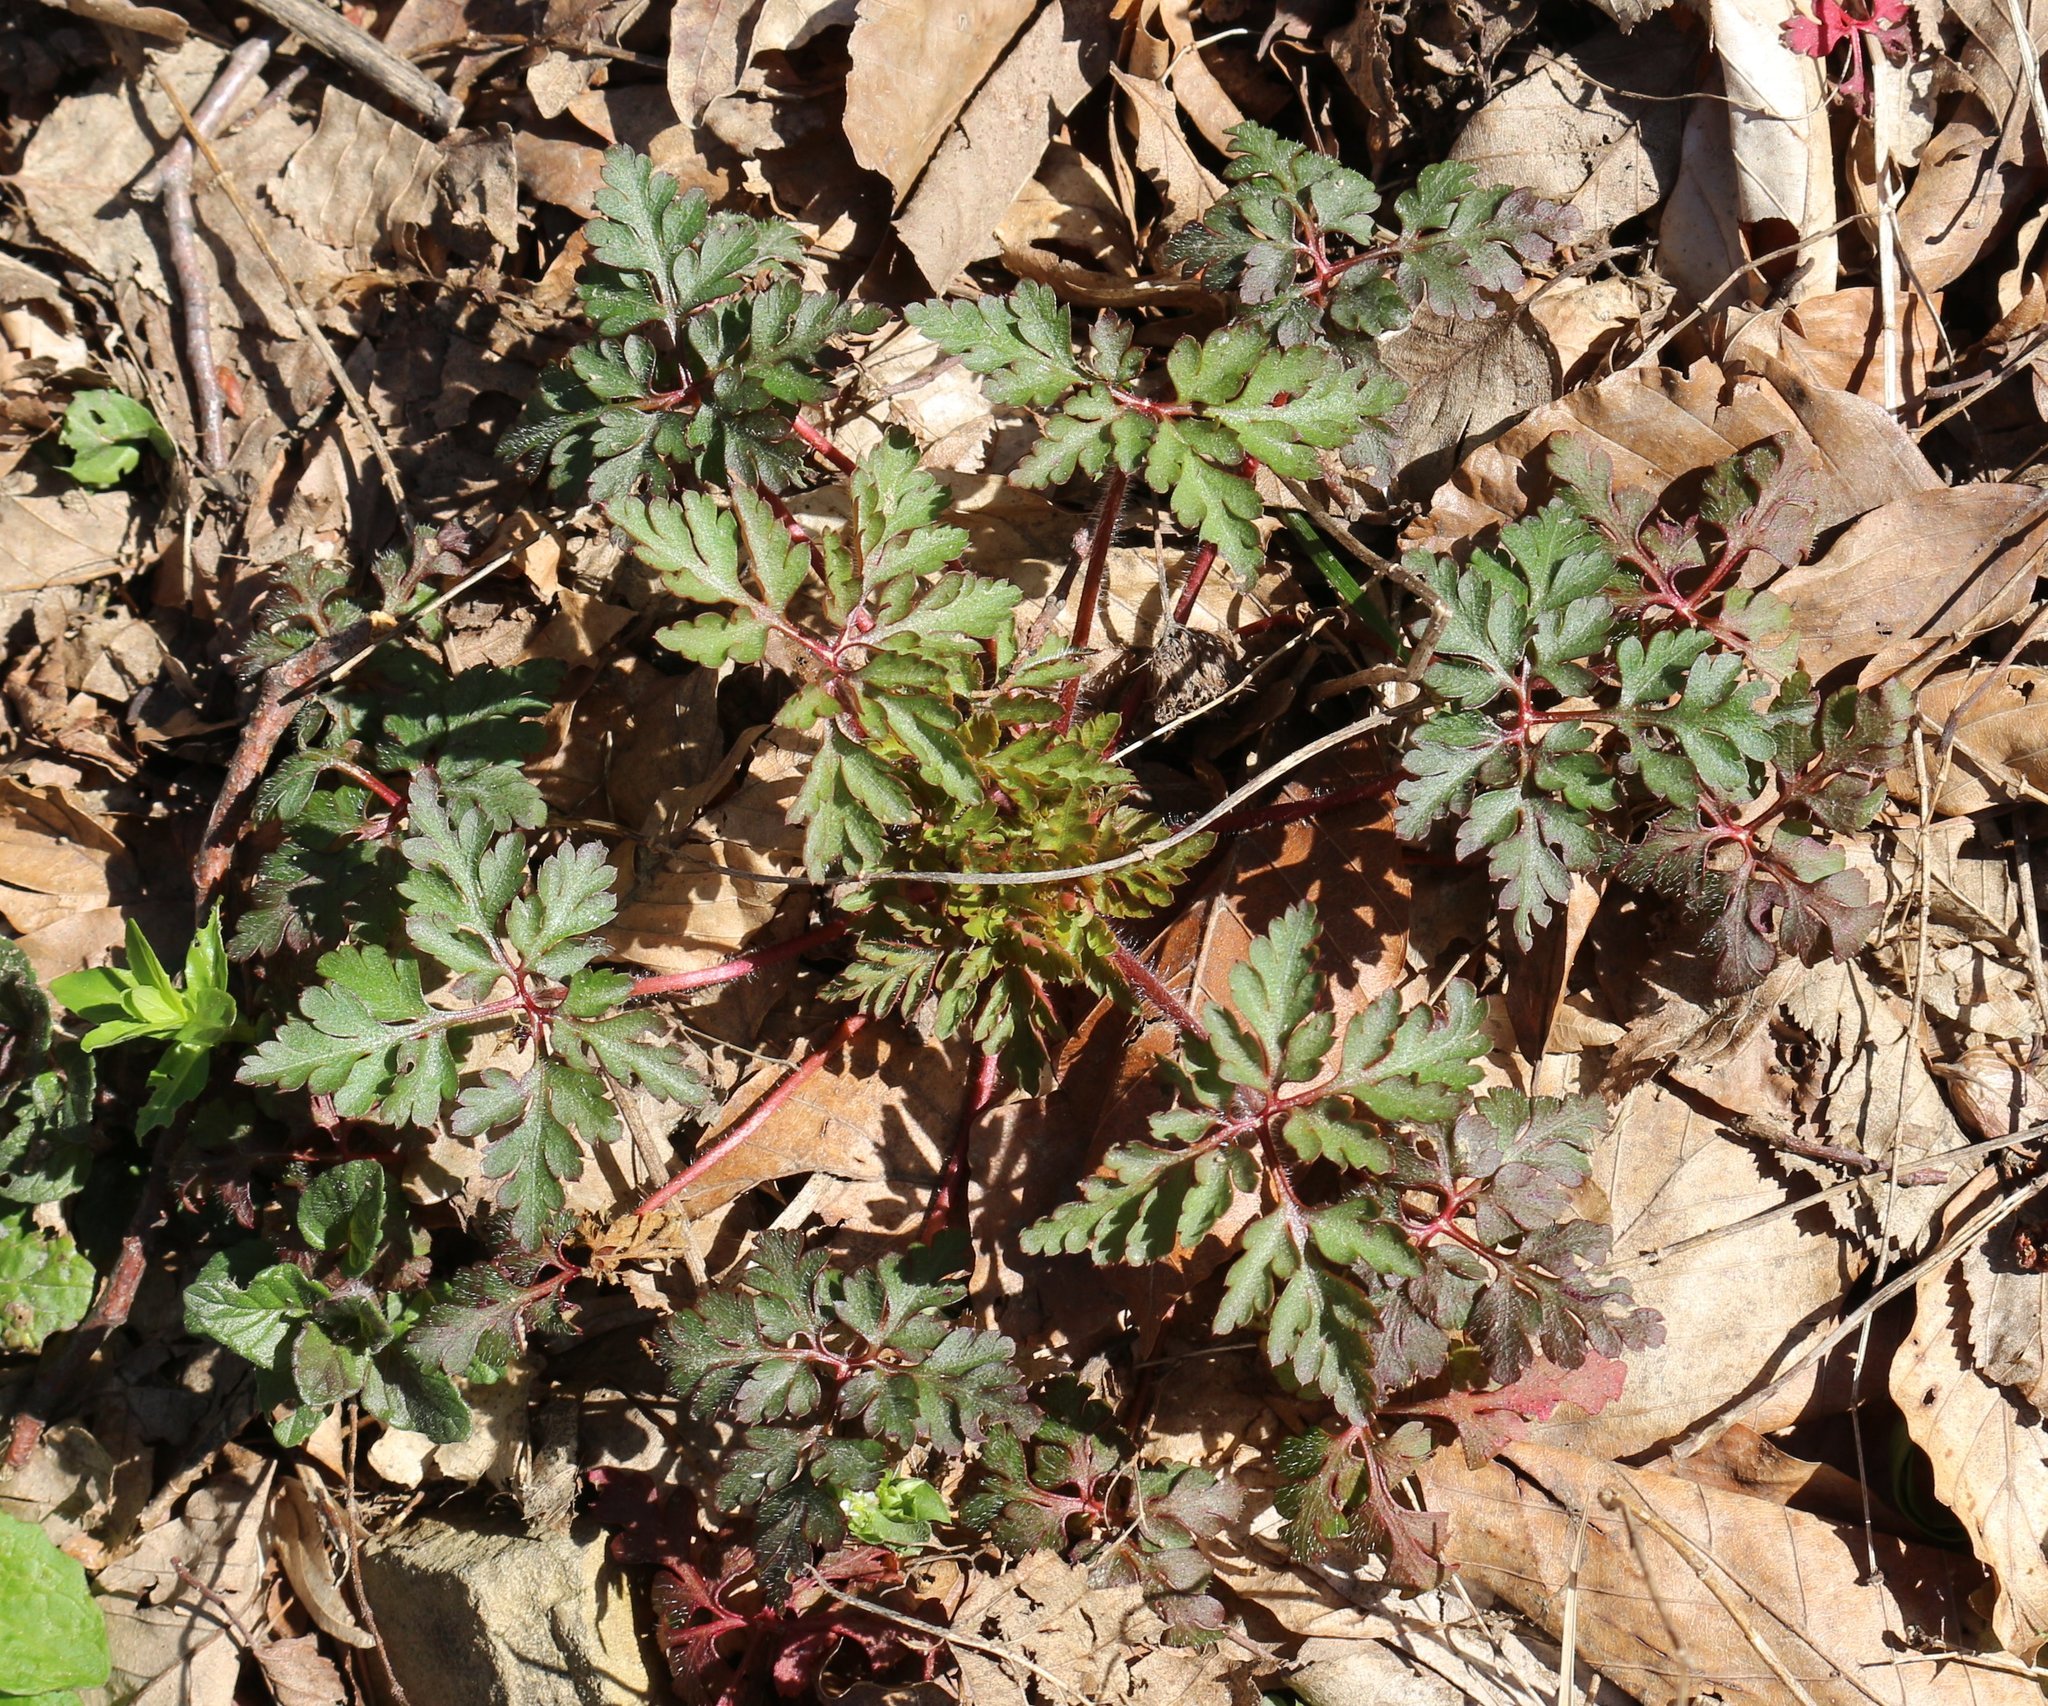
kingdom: Plantae
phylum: Tracheophyta
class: Magnoliopsida
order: Geraniales
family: Geraniaceae
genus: Geranium
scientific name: Geranium robertianum
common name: Herb-robert
